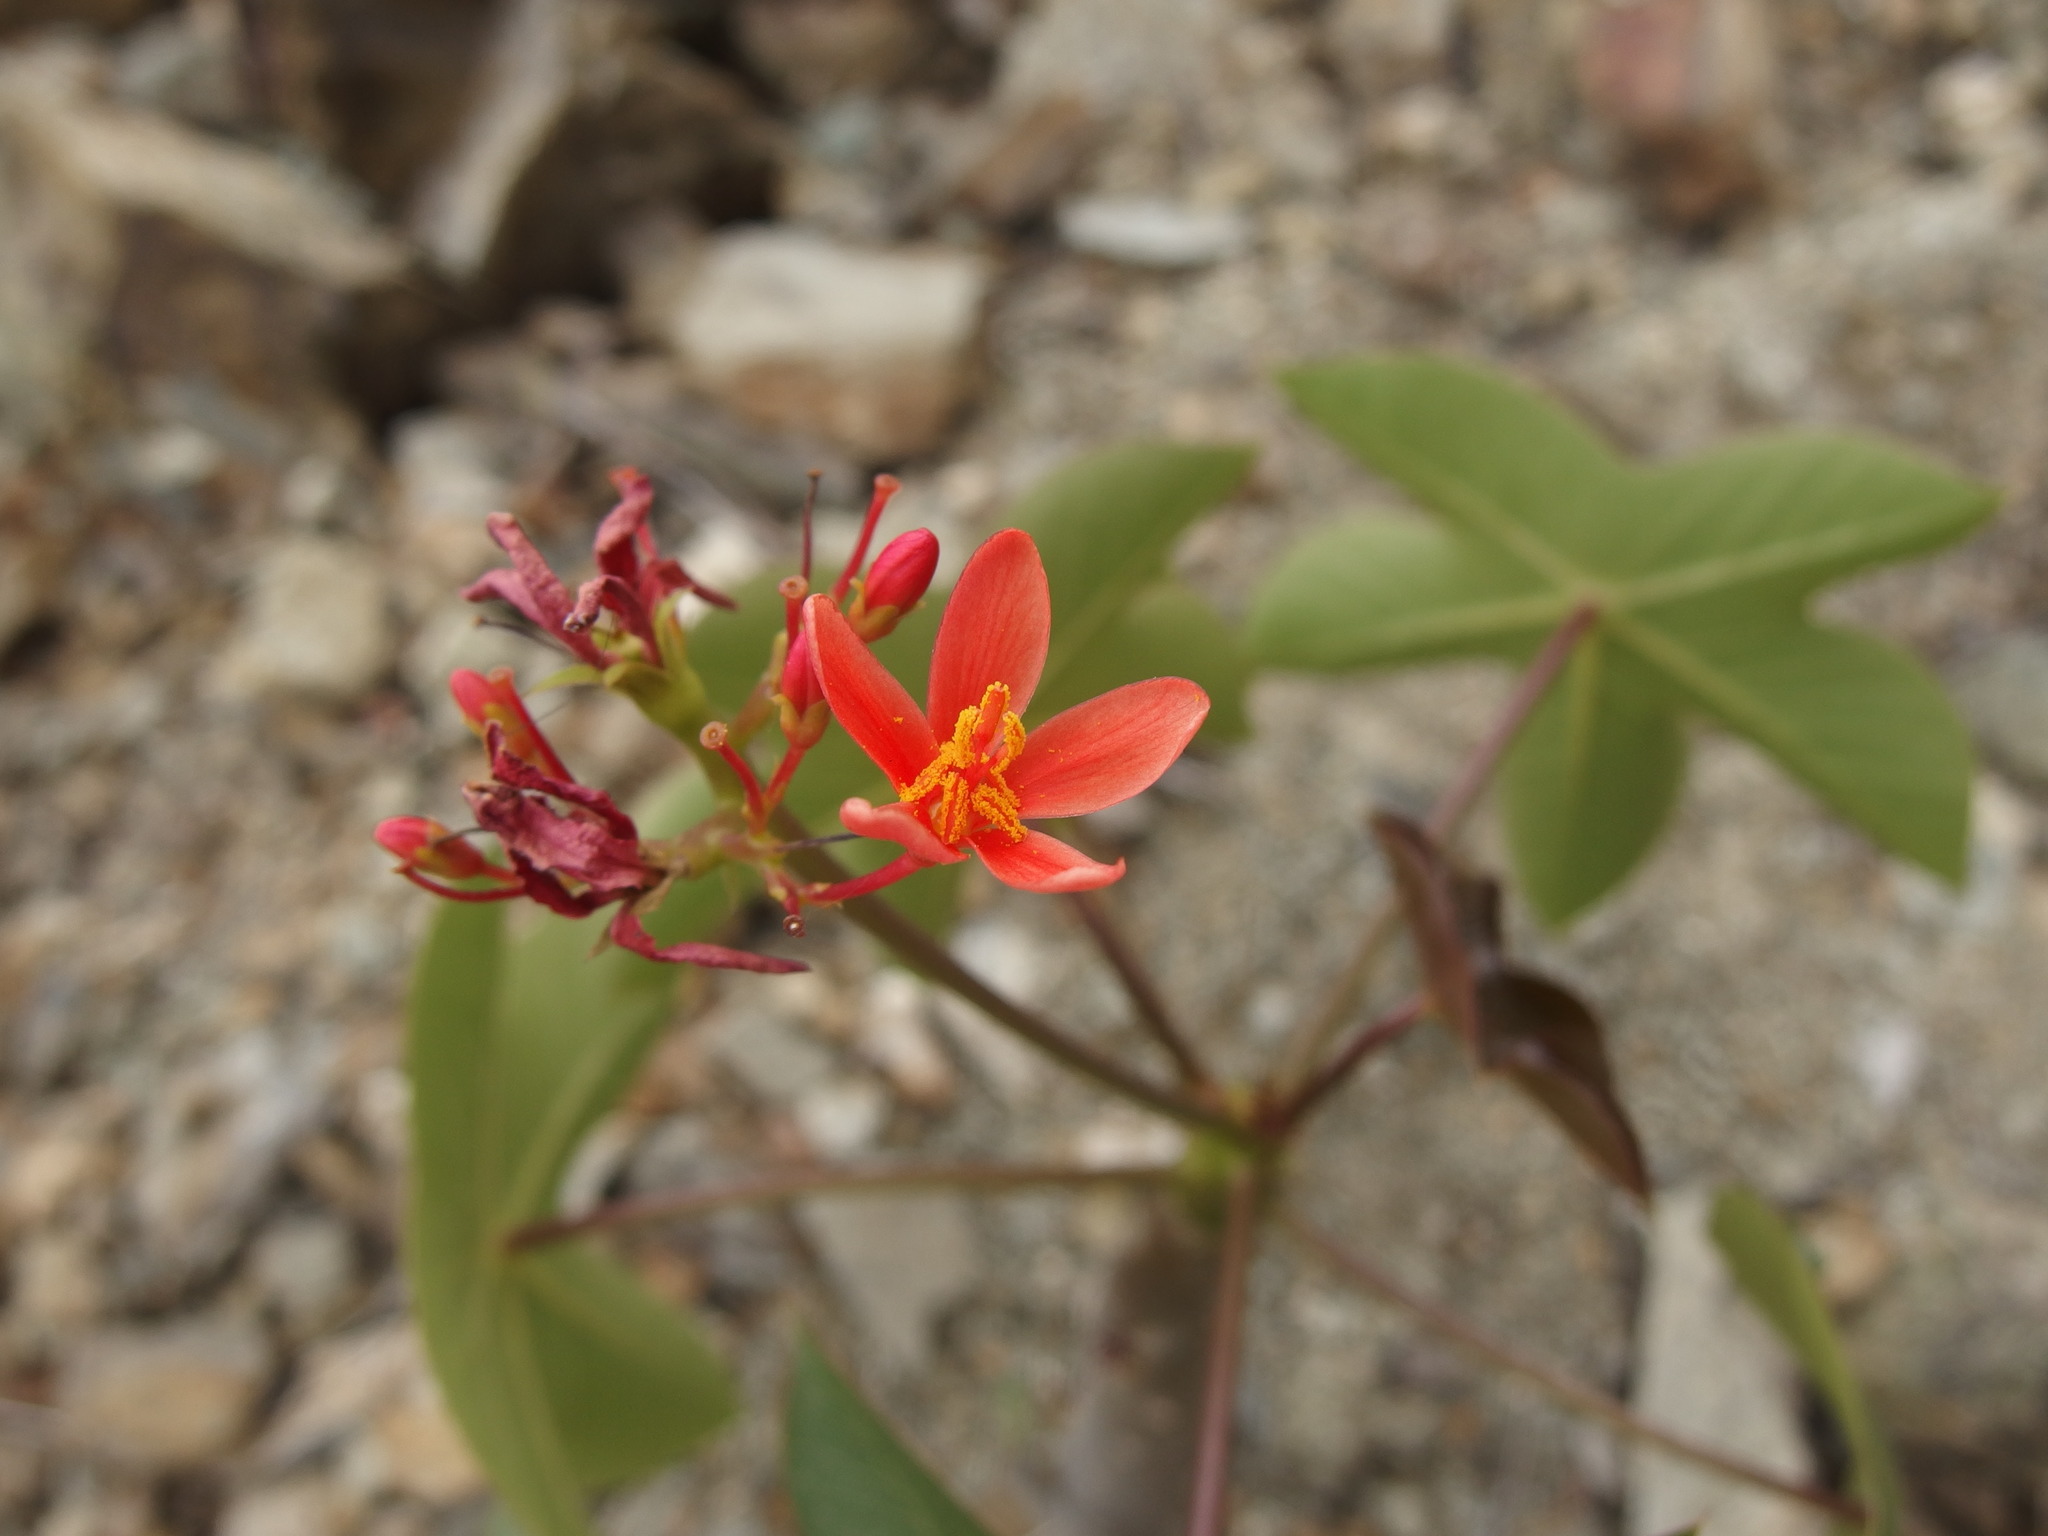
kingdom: Plantae
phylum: Tracheophyta
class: Magnoliopsida
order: Malpighiales
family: Euphorbiaceae
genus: Jatropha
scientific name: Jatropha nudicaulis
